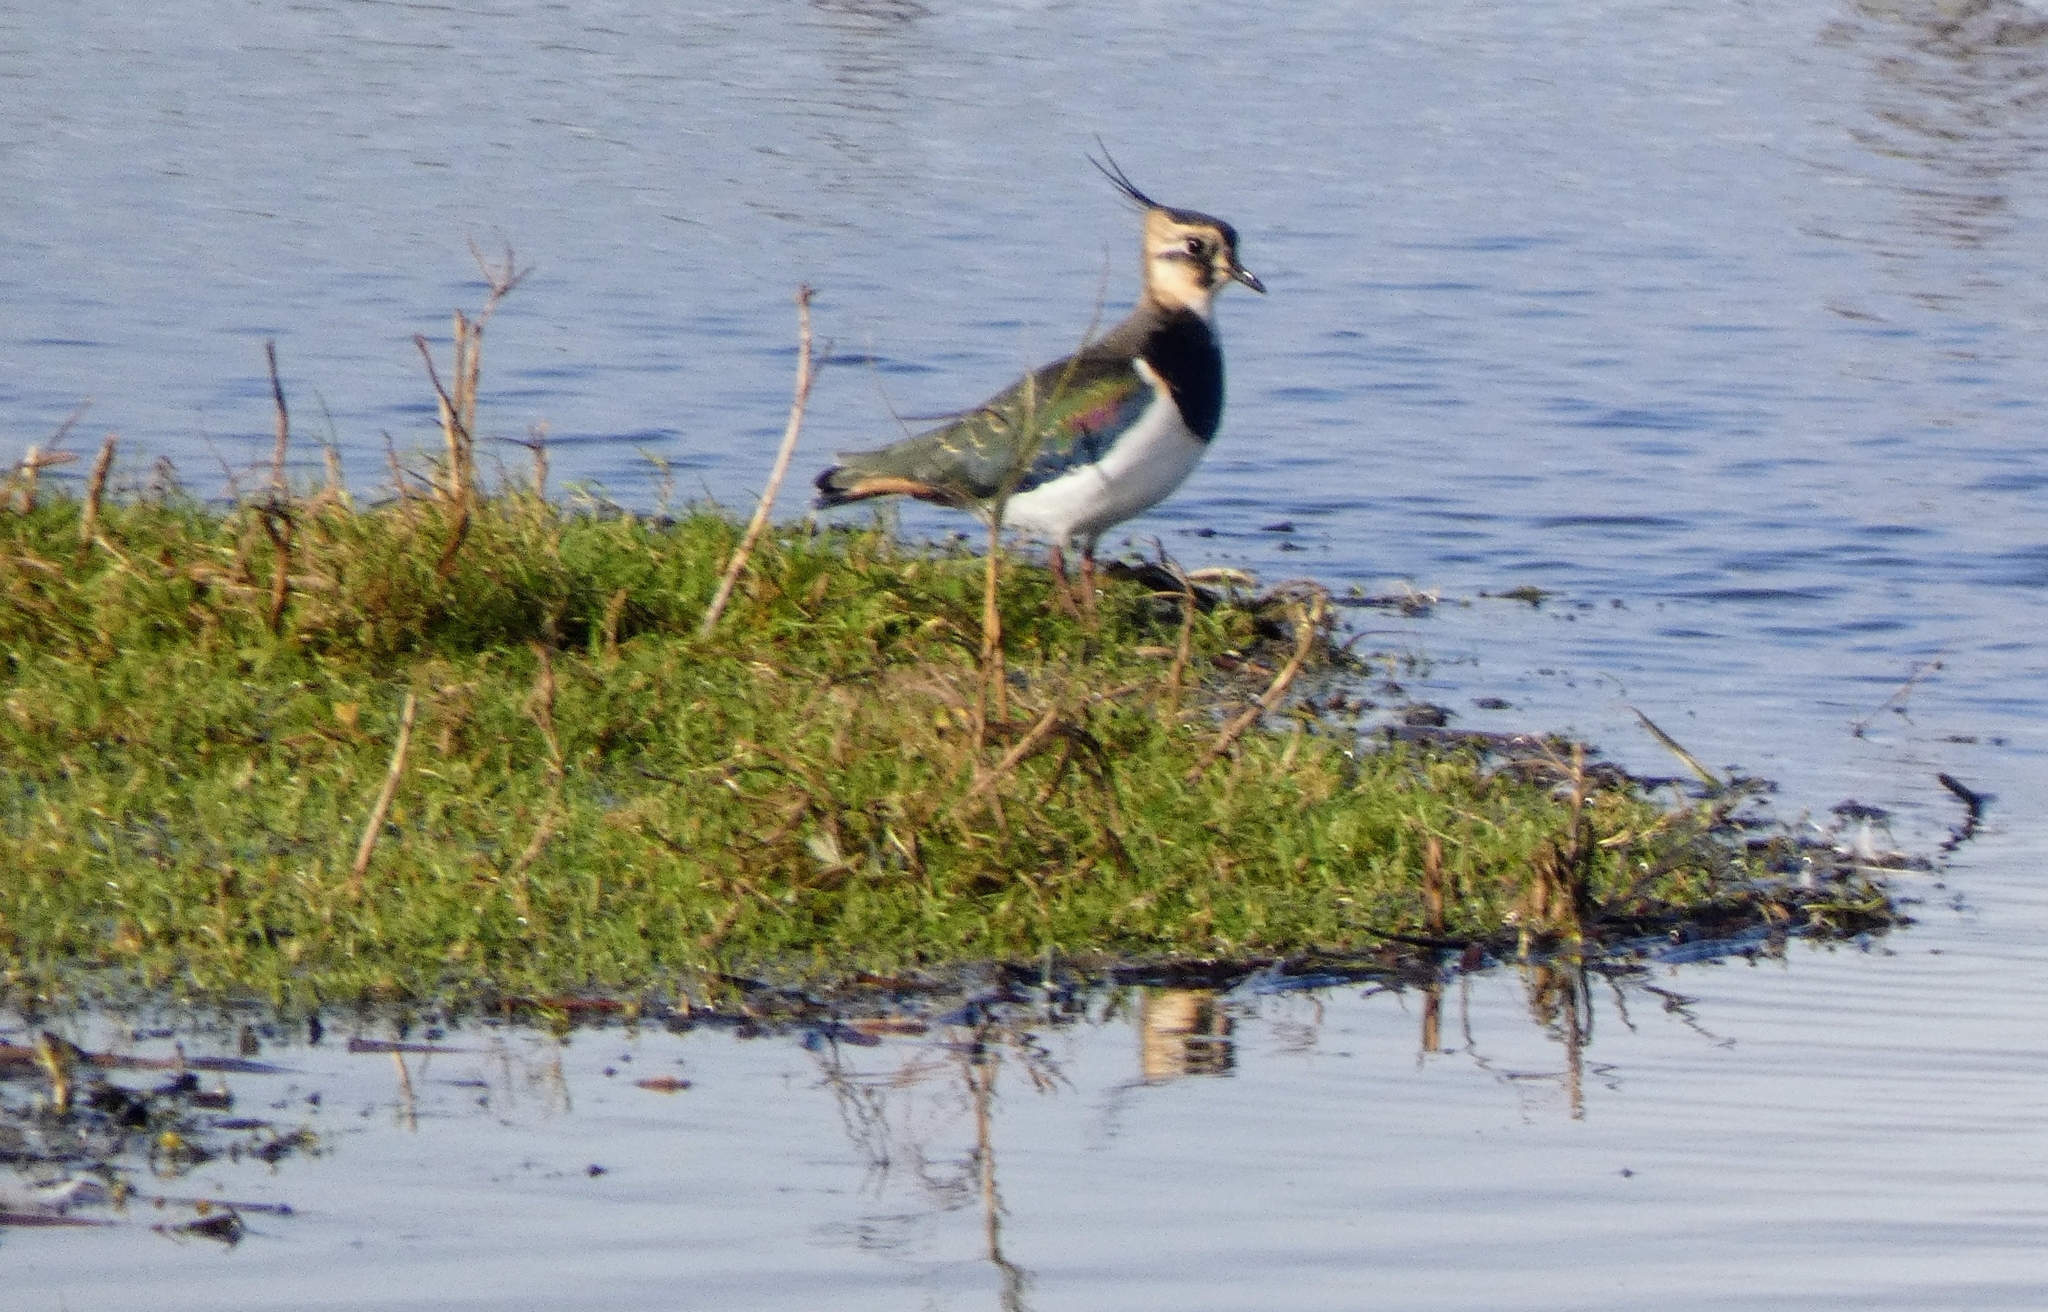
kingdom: Animalia
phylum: Chordata
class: Aves
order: Charadriiformes
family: Charadriidae
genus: Vanellus
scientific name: Vanellus vanellus
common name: Northern lapwing
